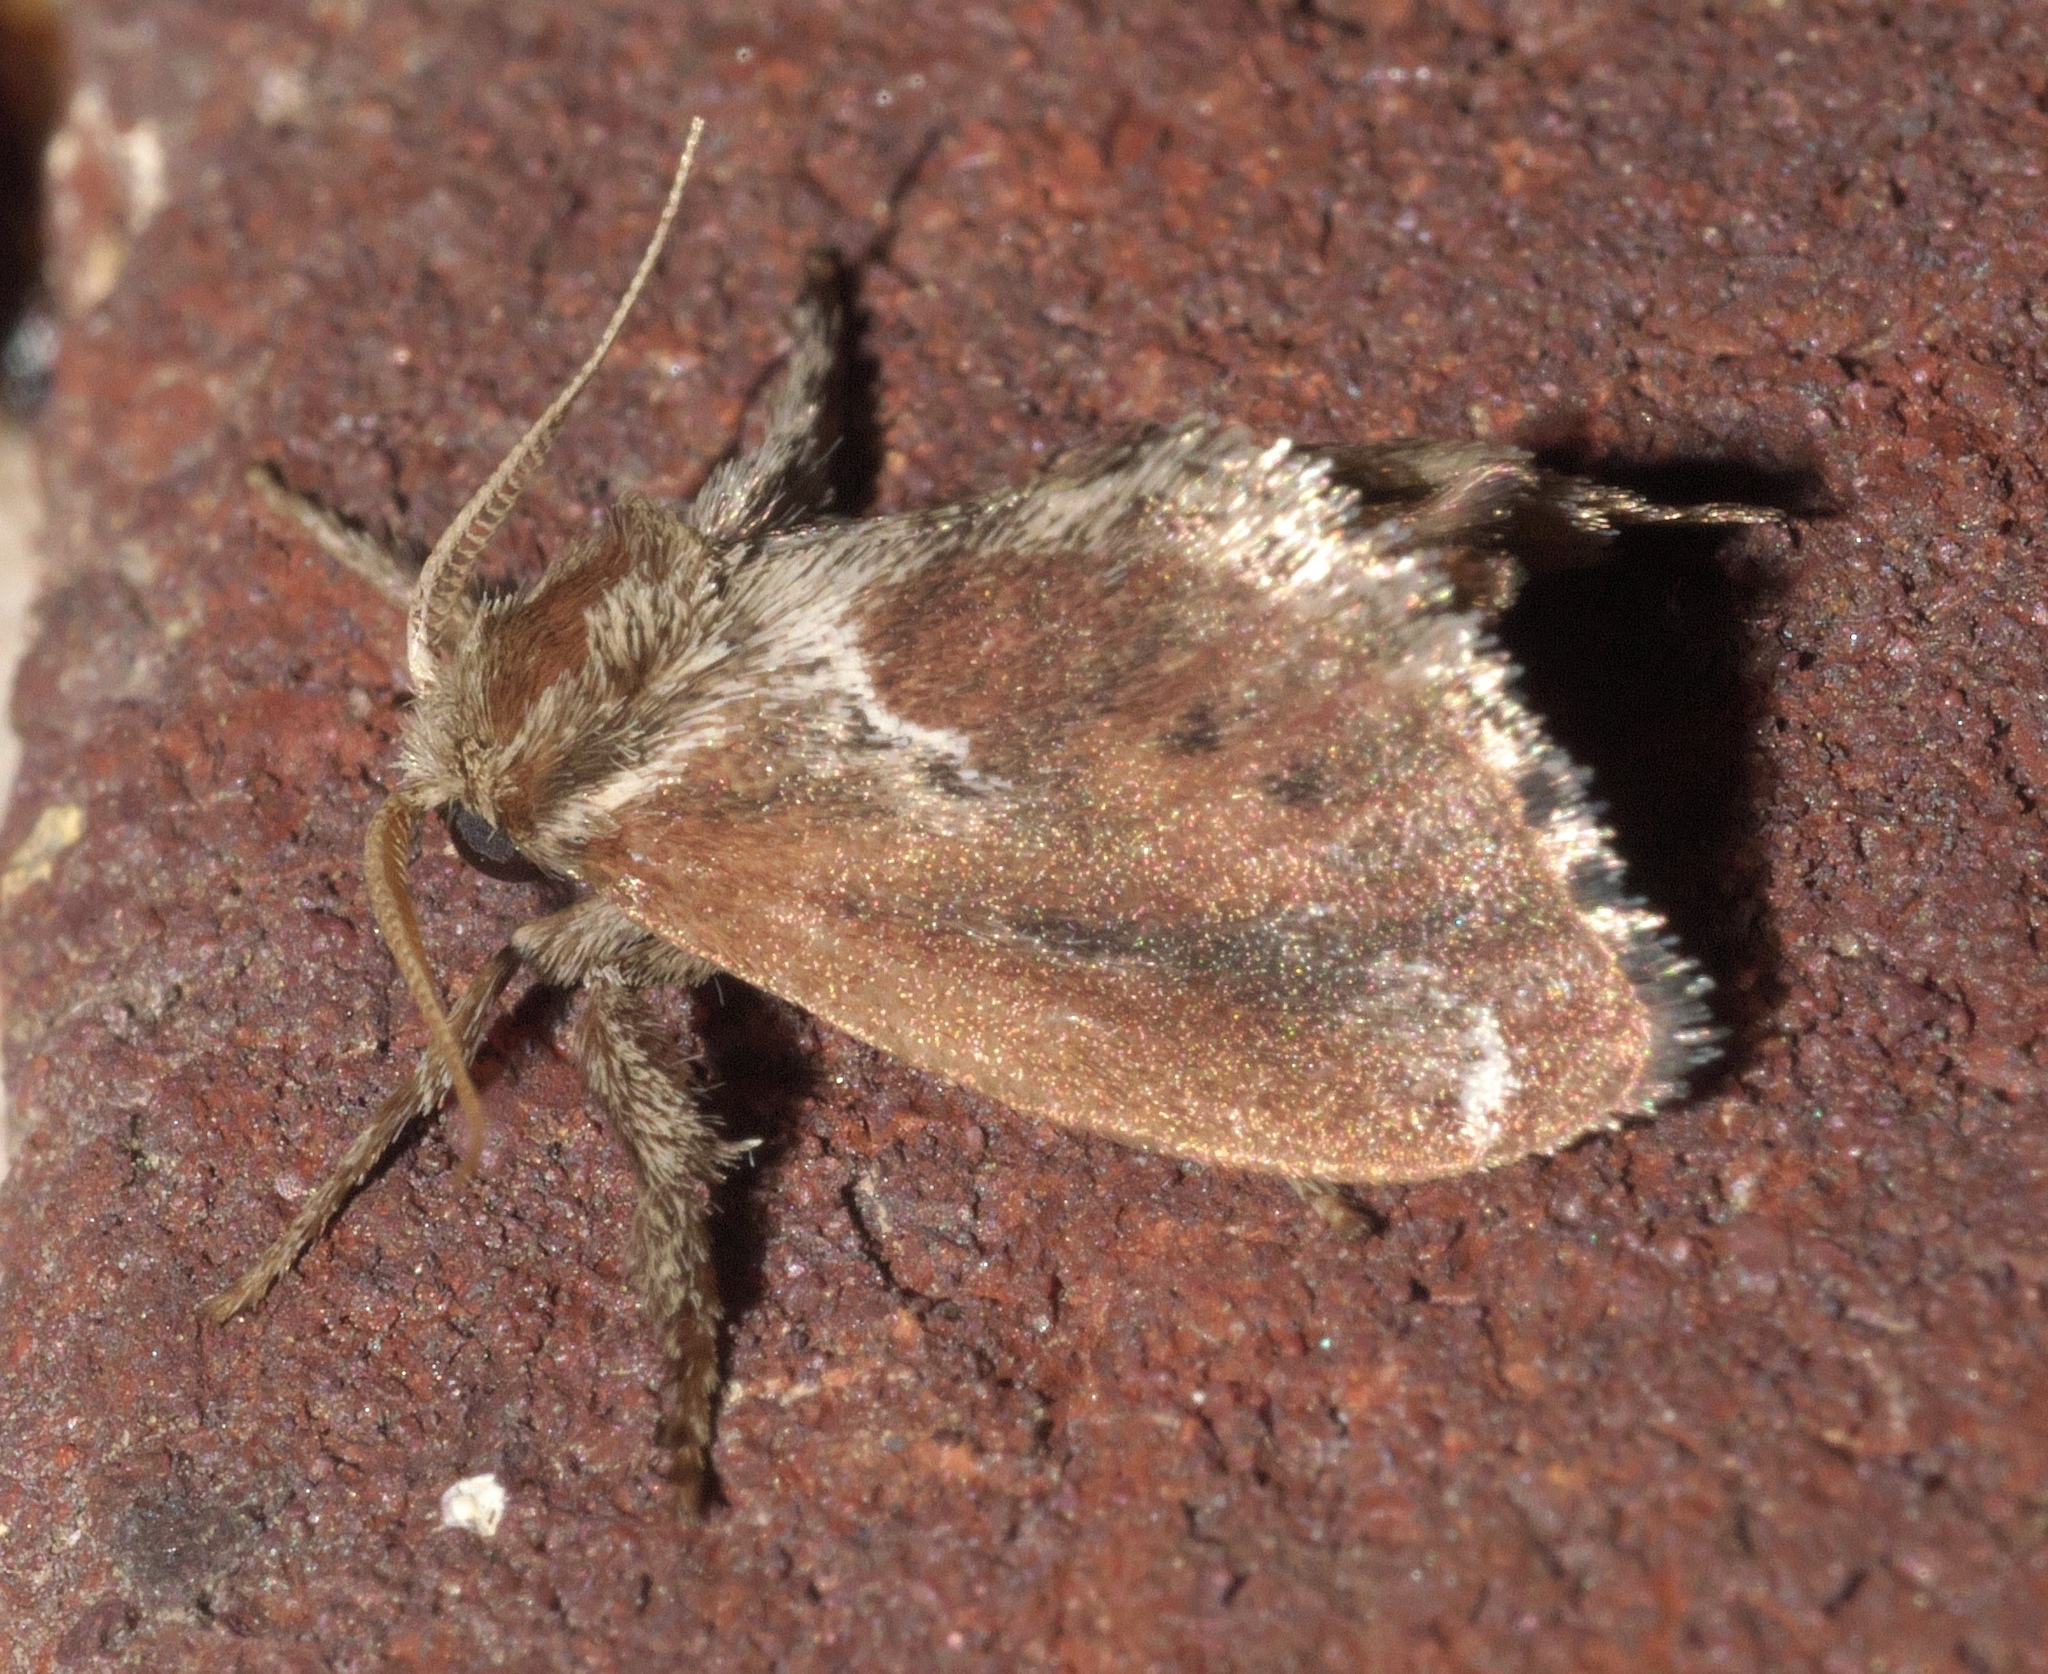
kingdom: Animalia
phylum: Arthropoda
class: Insecta
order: Lepidoptera
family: Limacodidae
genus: Adoneta
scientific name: Adoneta spinuloides
